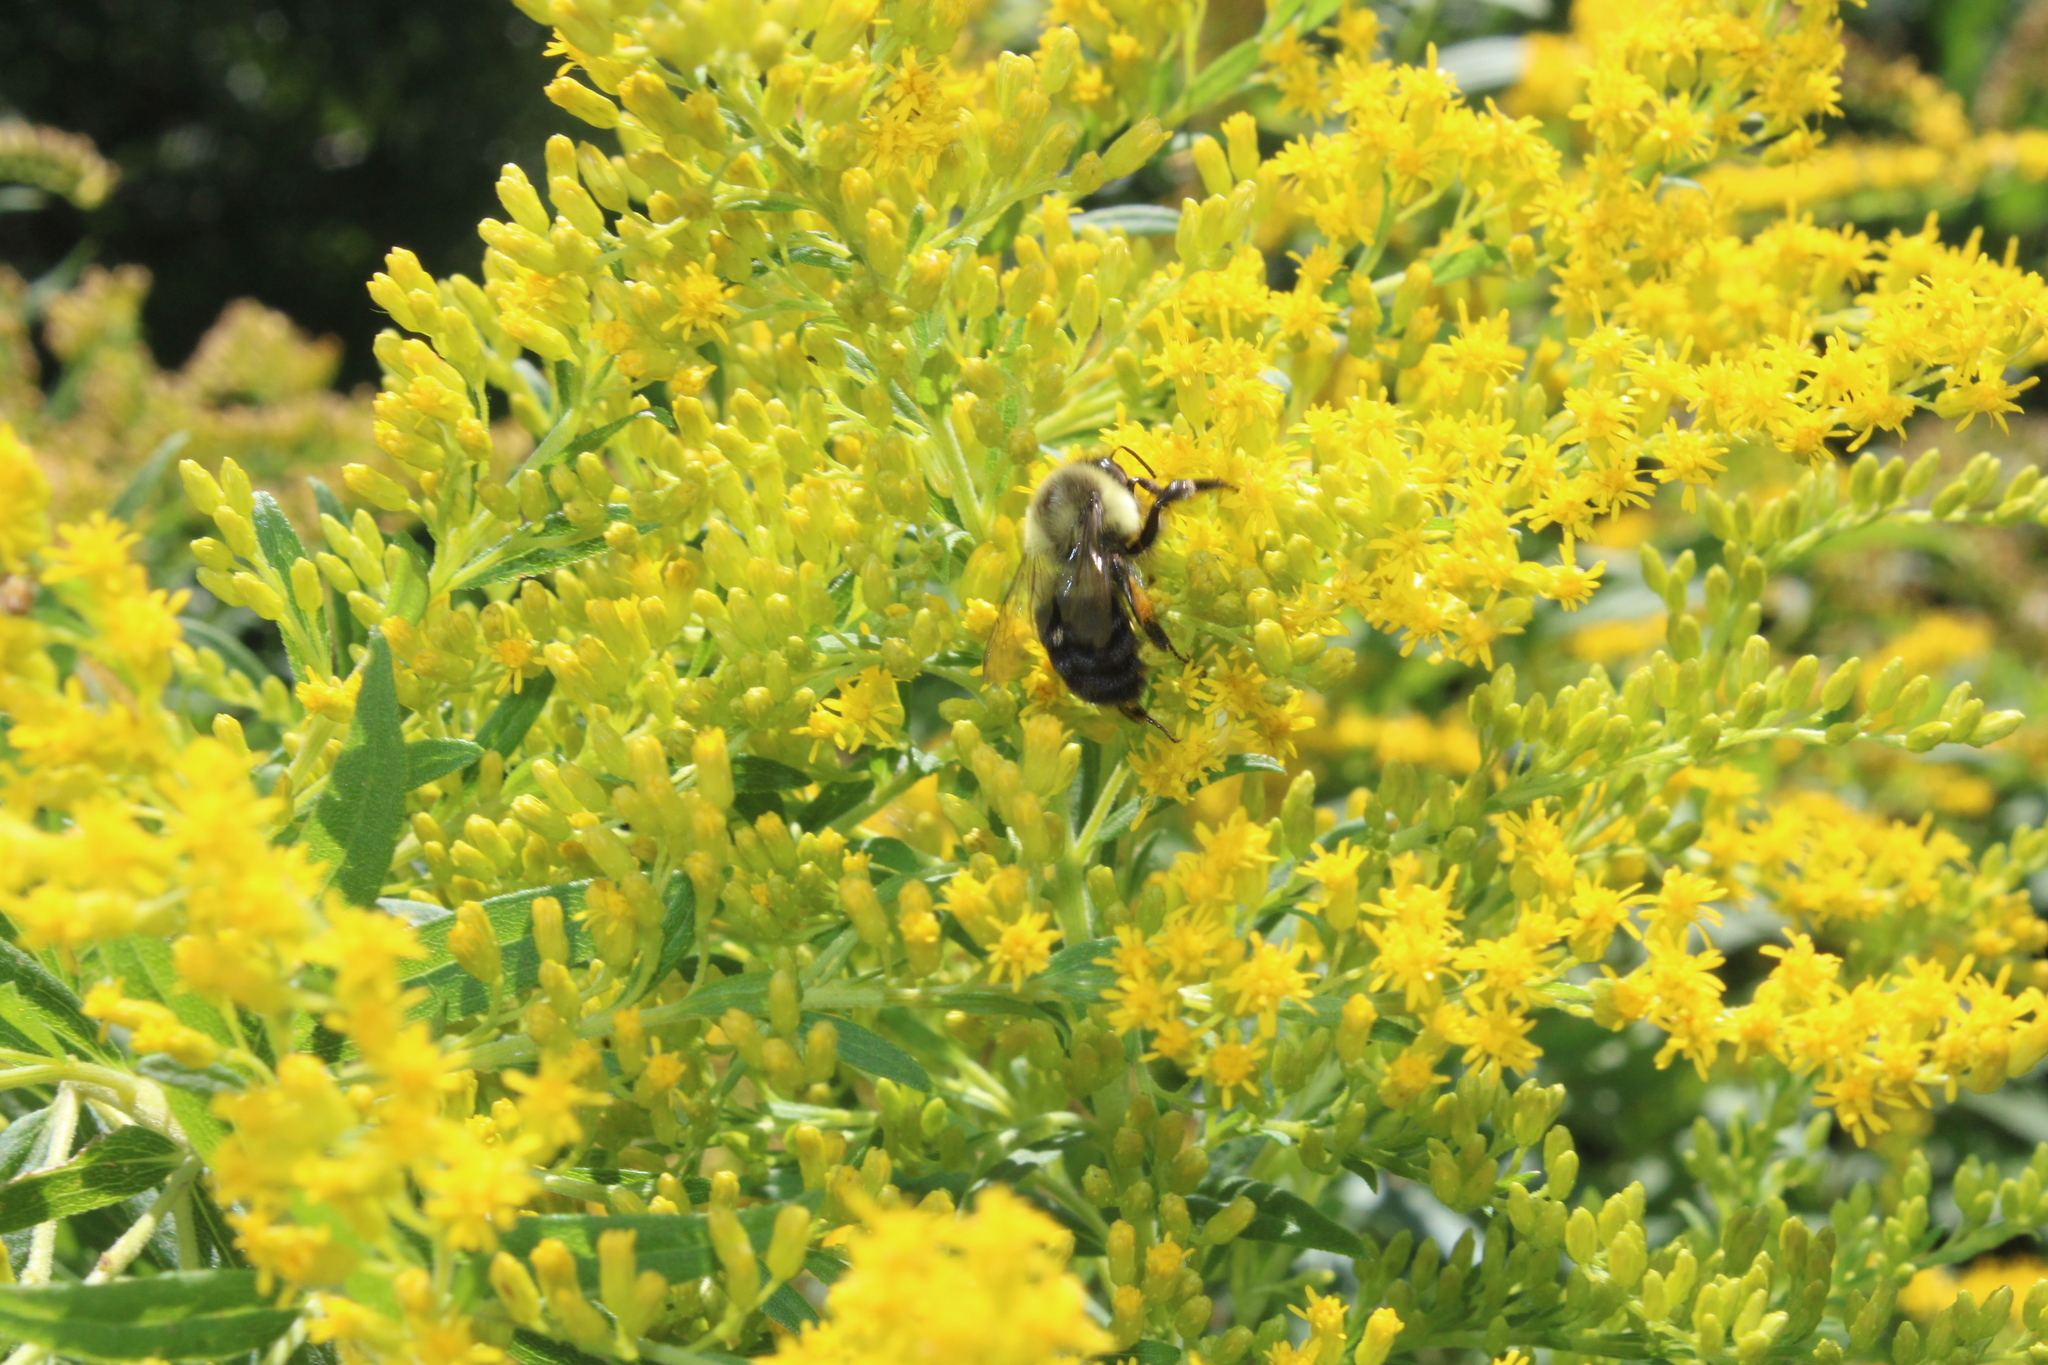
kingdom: Animalia
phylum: Arthropoda
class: Insecta
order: Hymenoptera
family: Apidae
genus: Bombus
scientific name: Bombus impatiens
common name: Common eastern bumble bee
